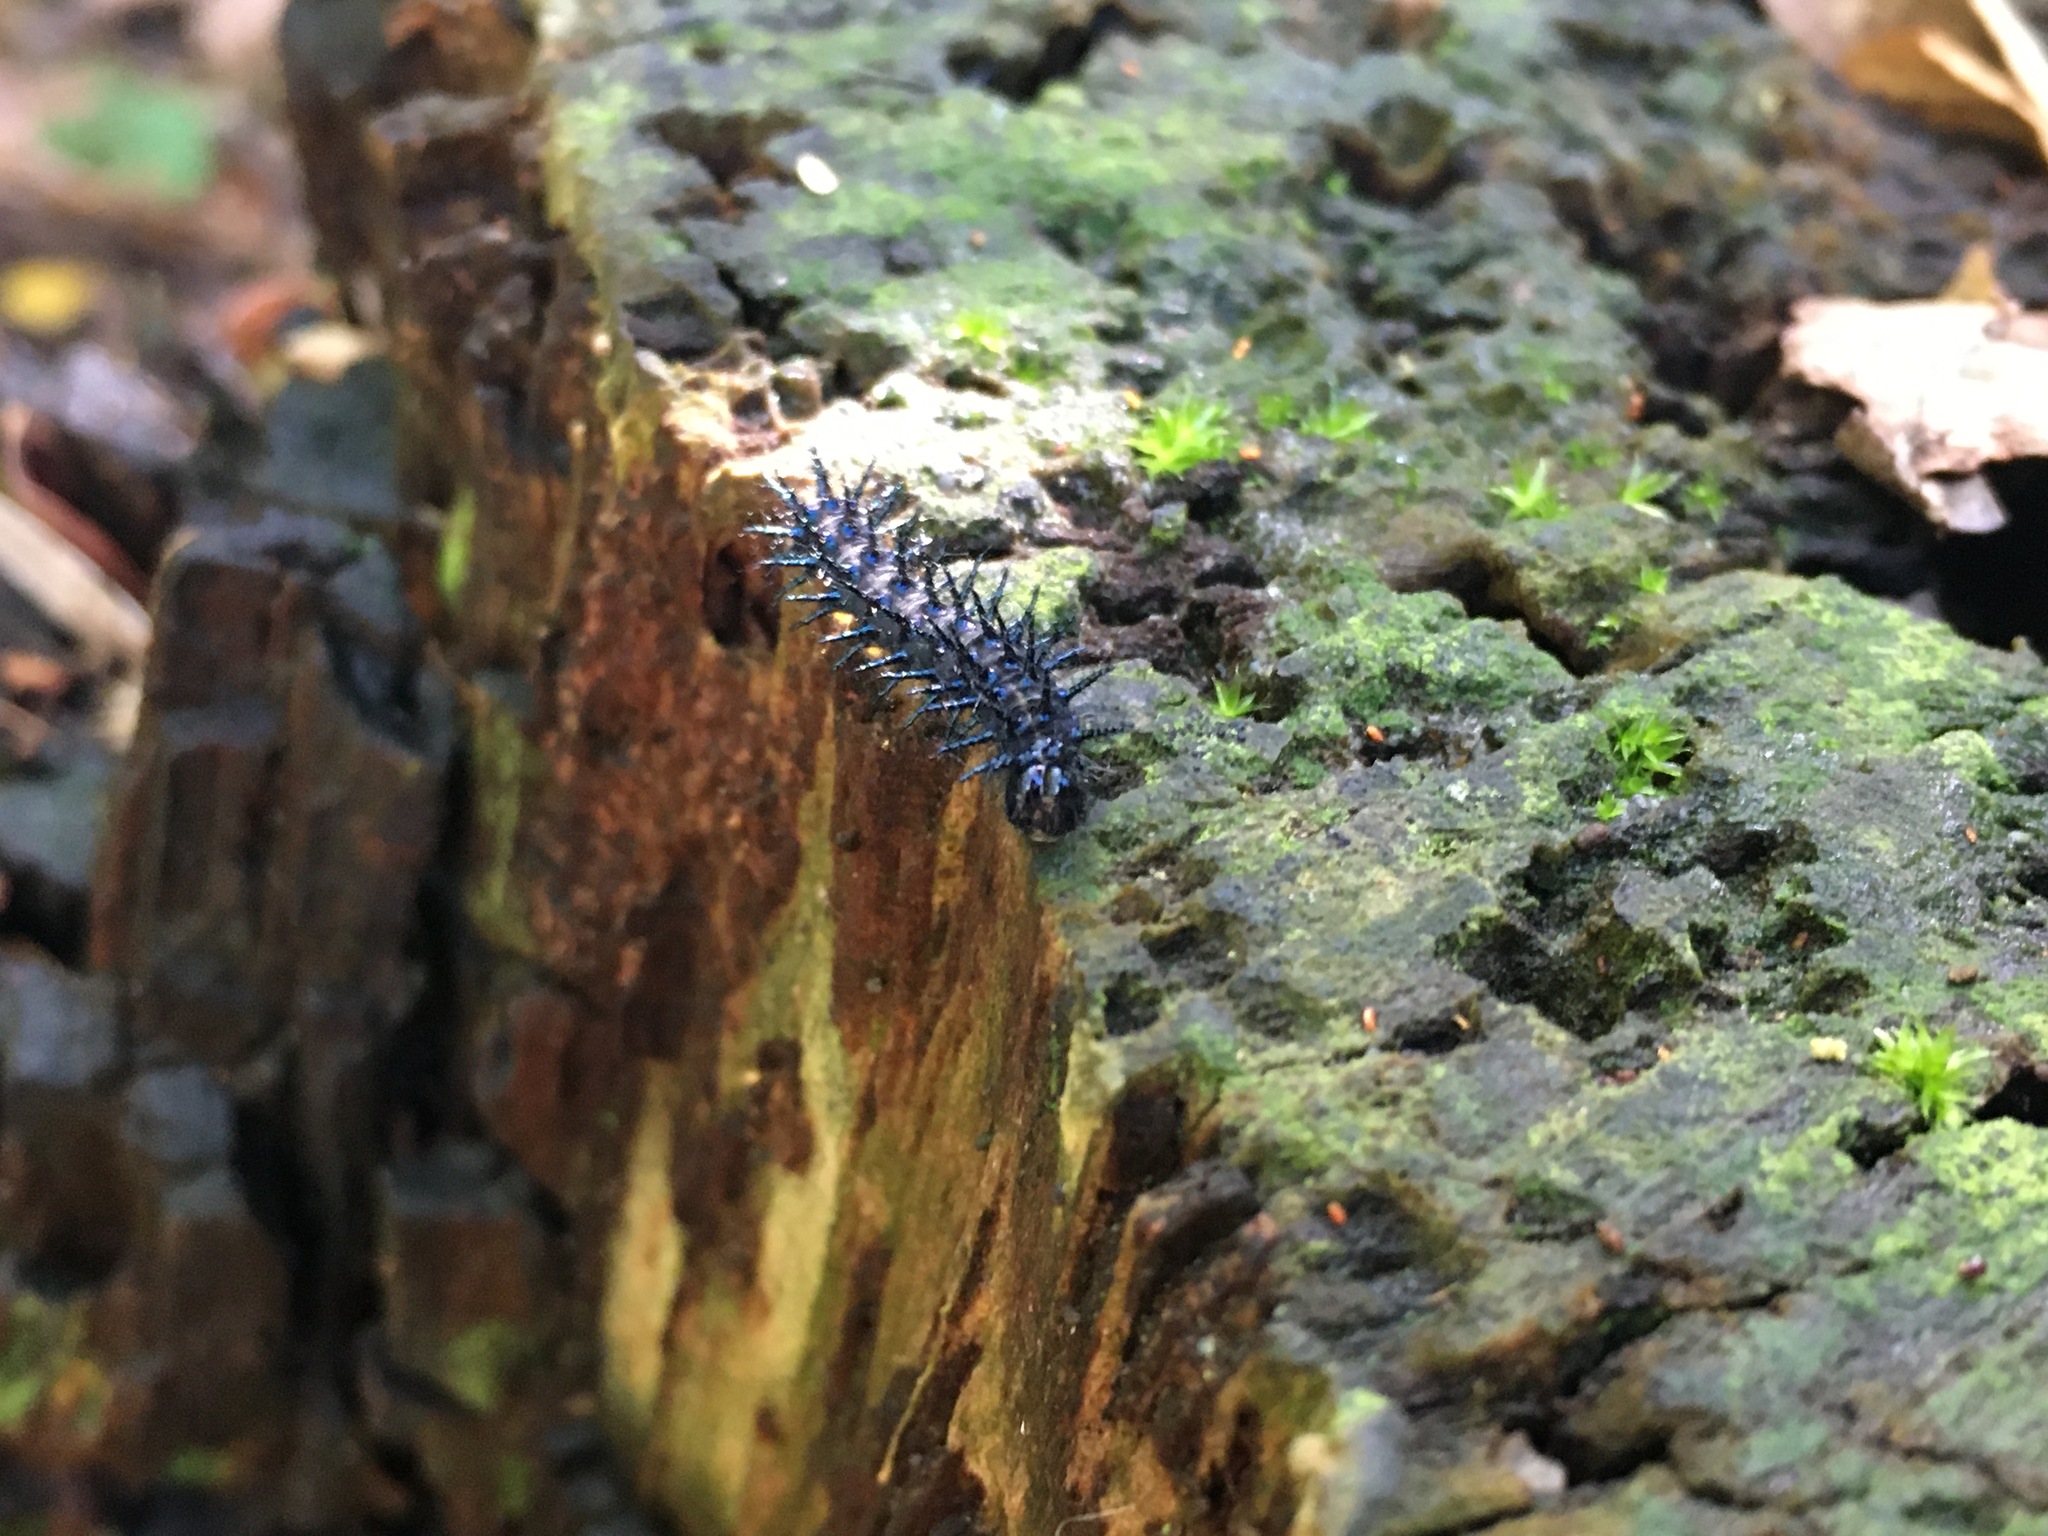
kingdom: Animalia
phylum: Arthropoda
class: Insecta
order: Lepidoptera
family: Nymphalidae
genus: Acraea
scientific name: Acraea horta
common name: Garden acraea
